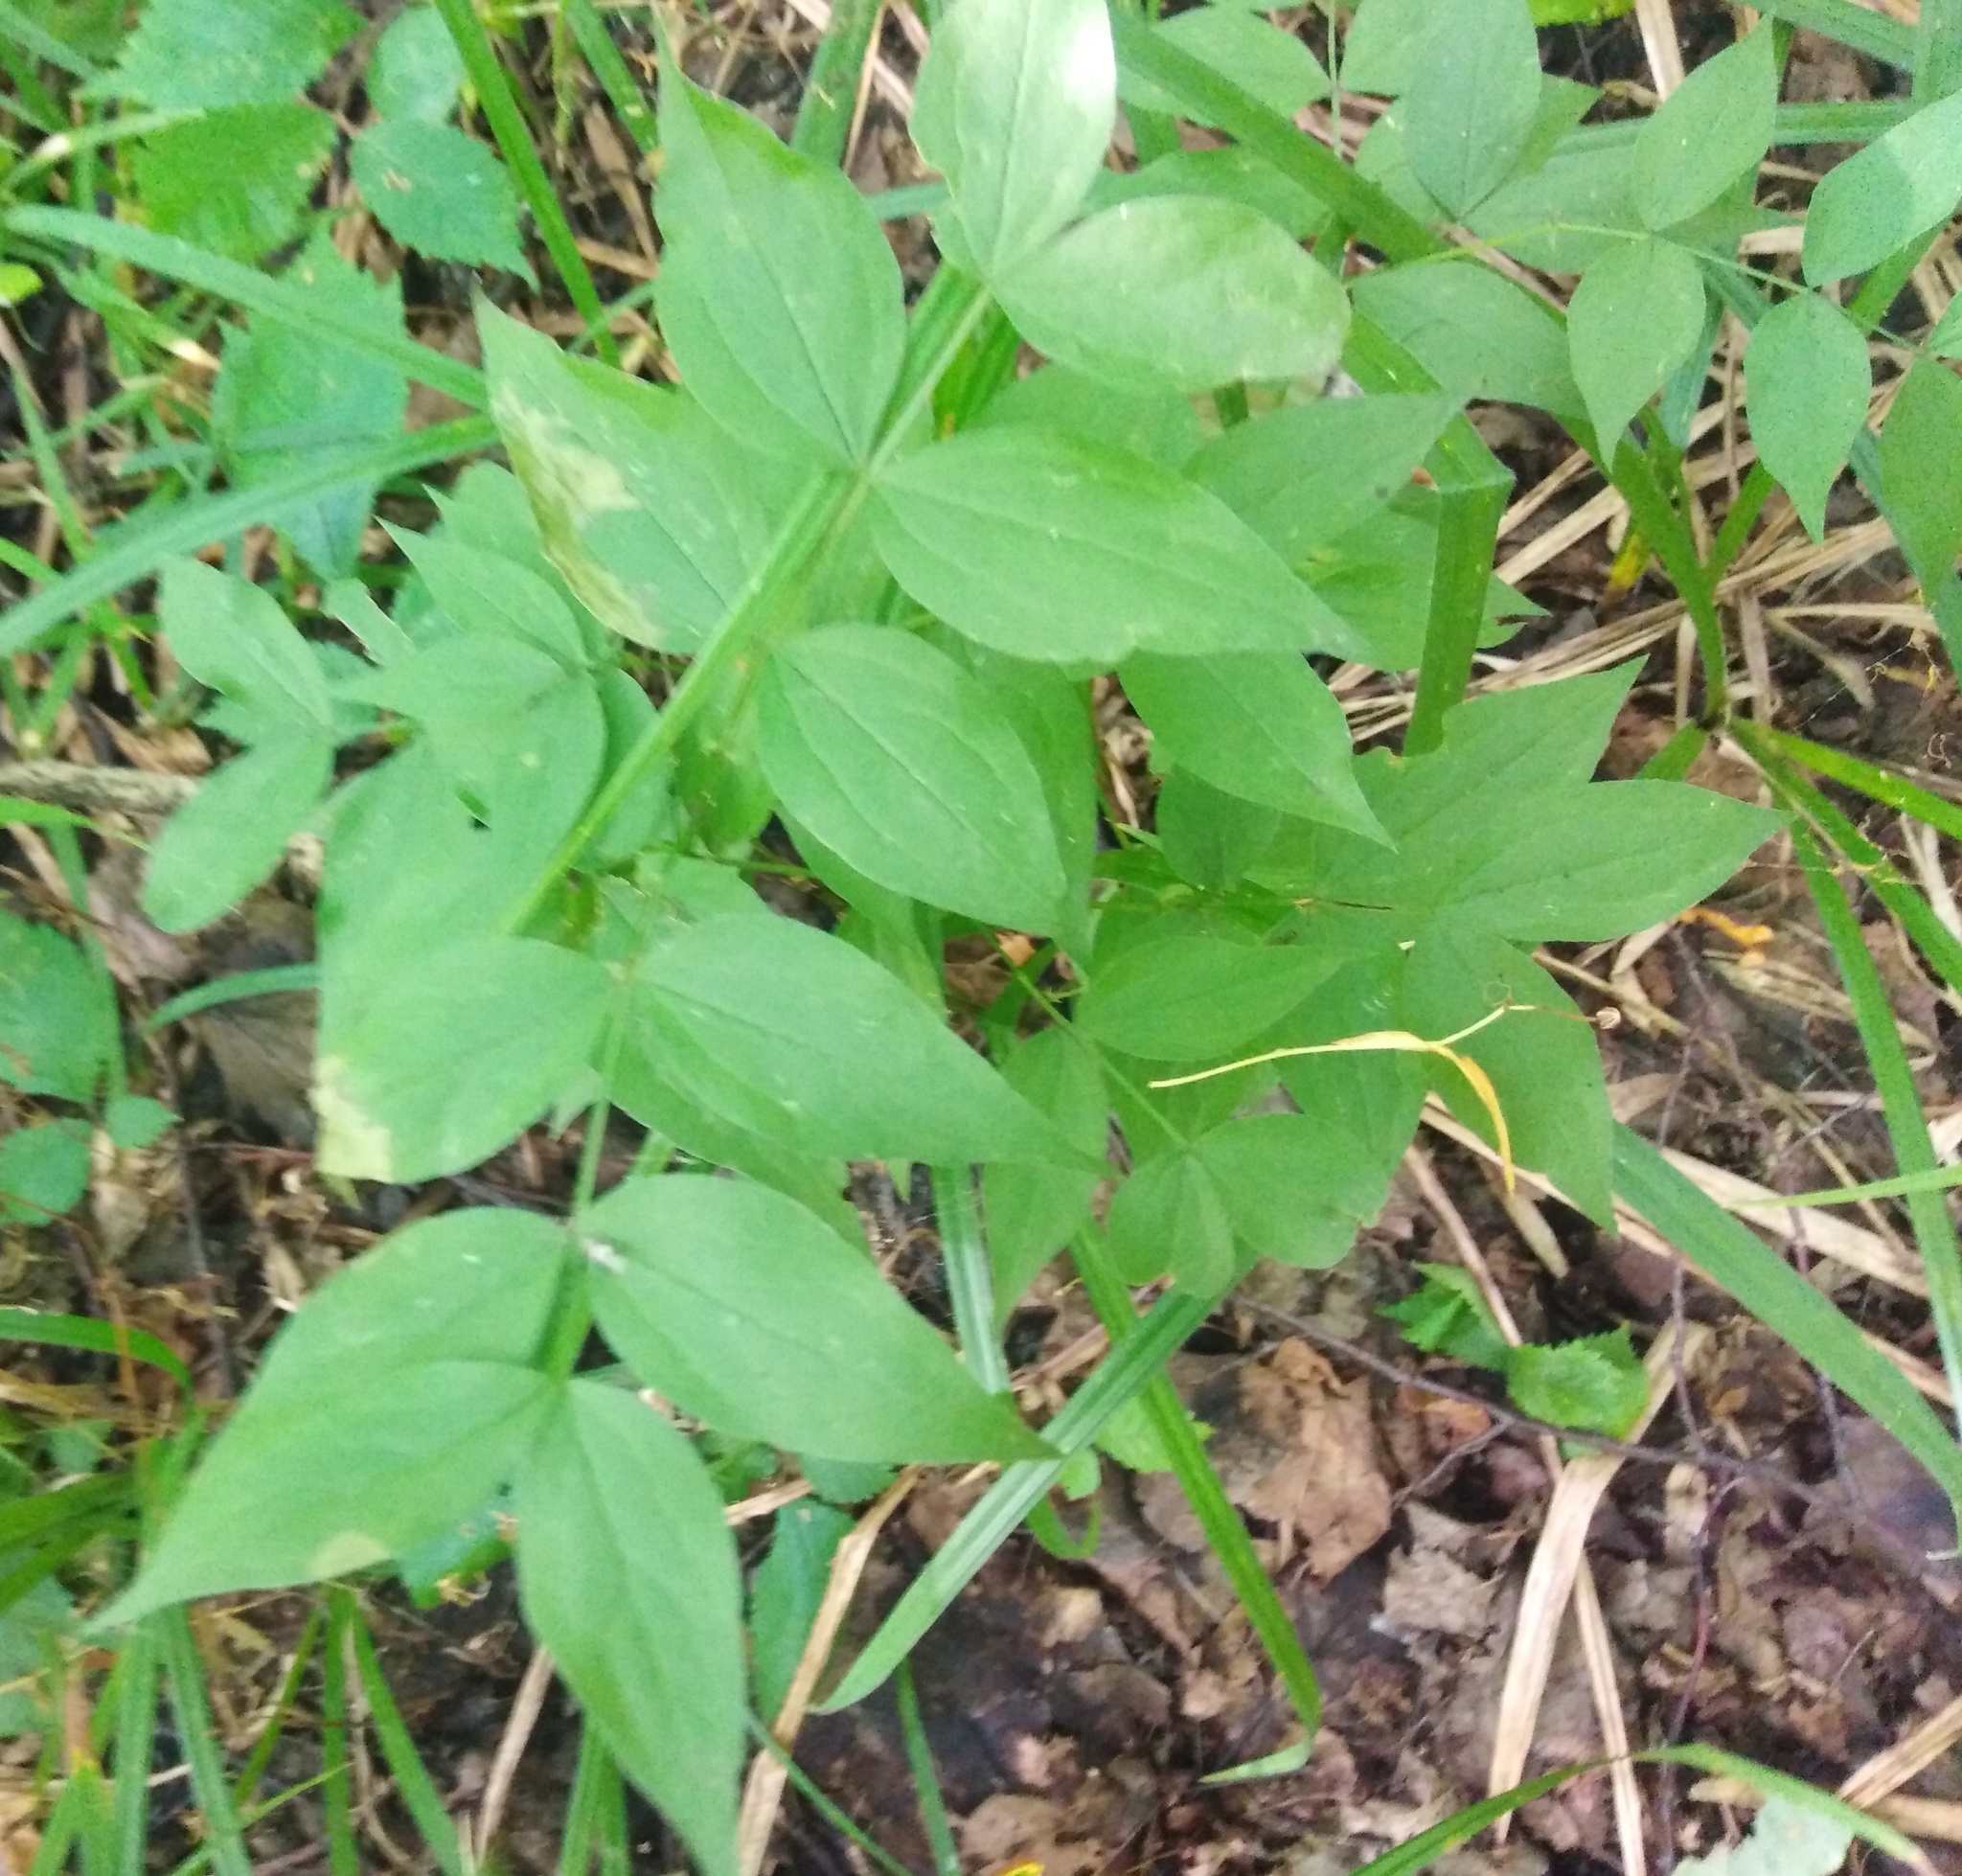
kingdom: Plantae
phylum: Tracheophyta
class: Magnoliopsida
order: Fabales
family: Fabaceae
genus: Lathyrus
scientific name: Lathyrus vernus
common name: Spring pea
